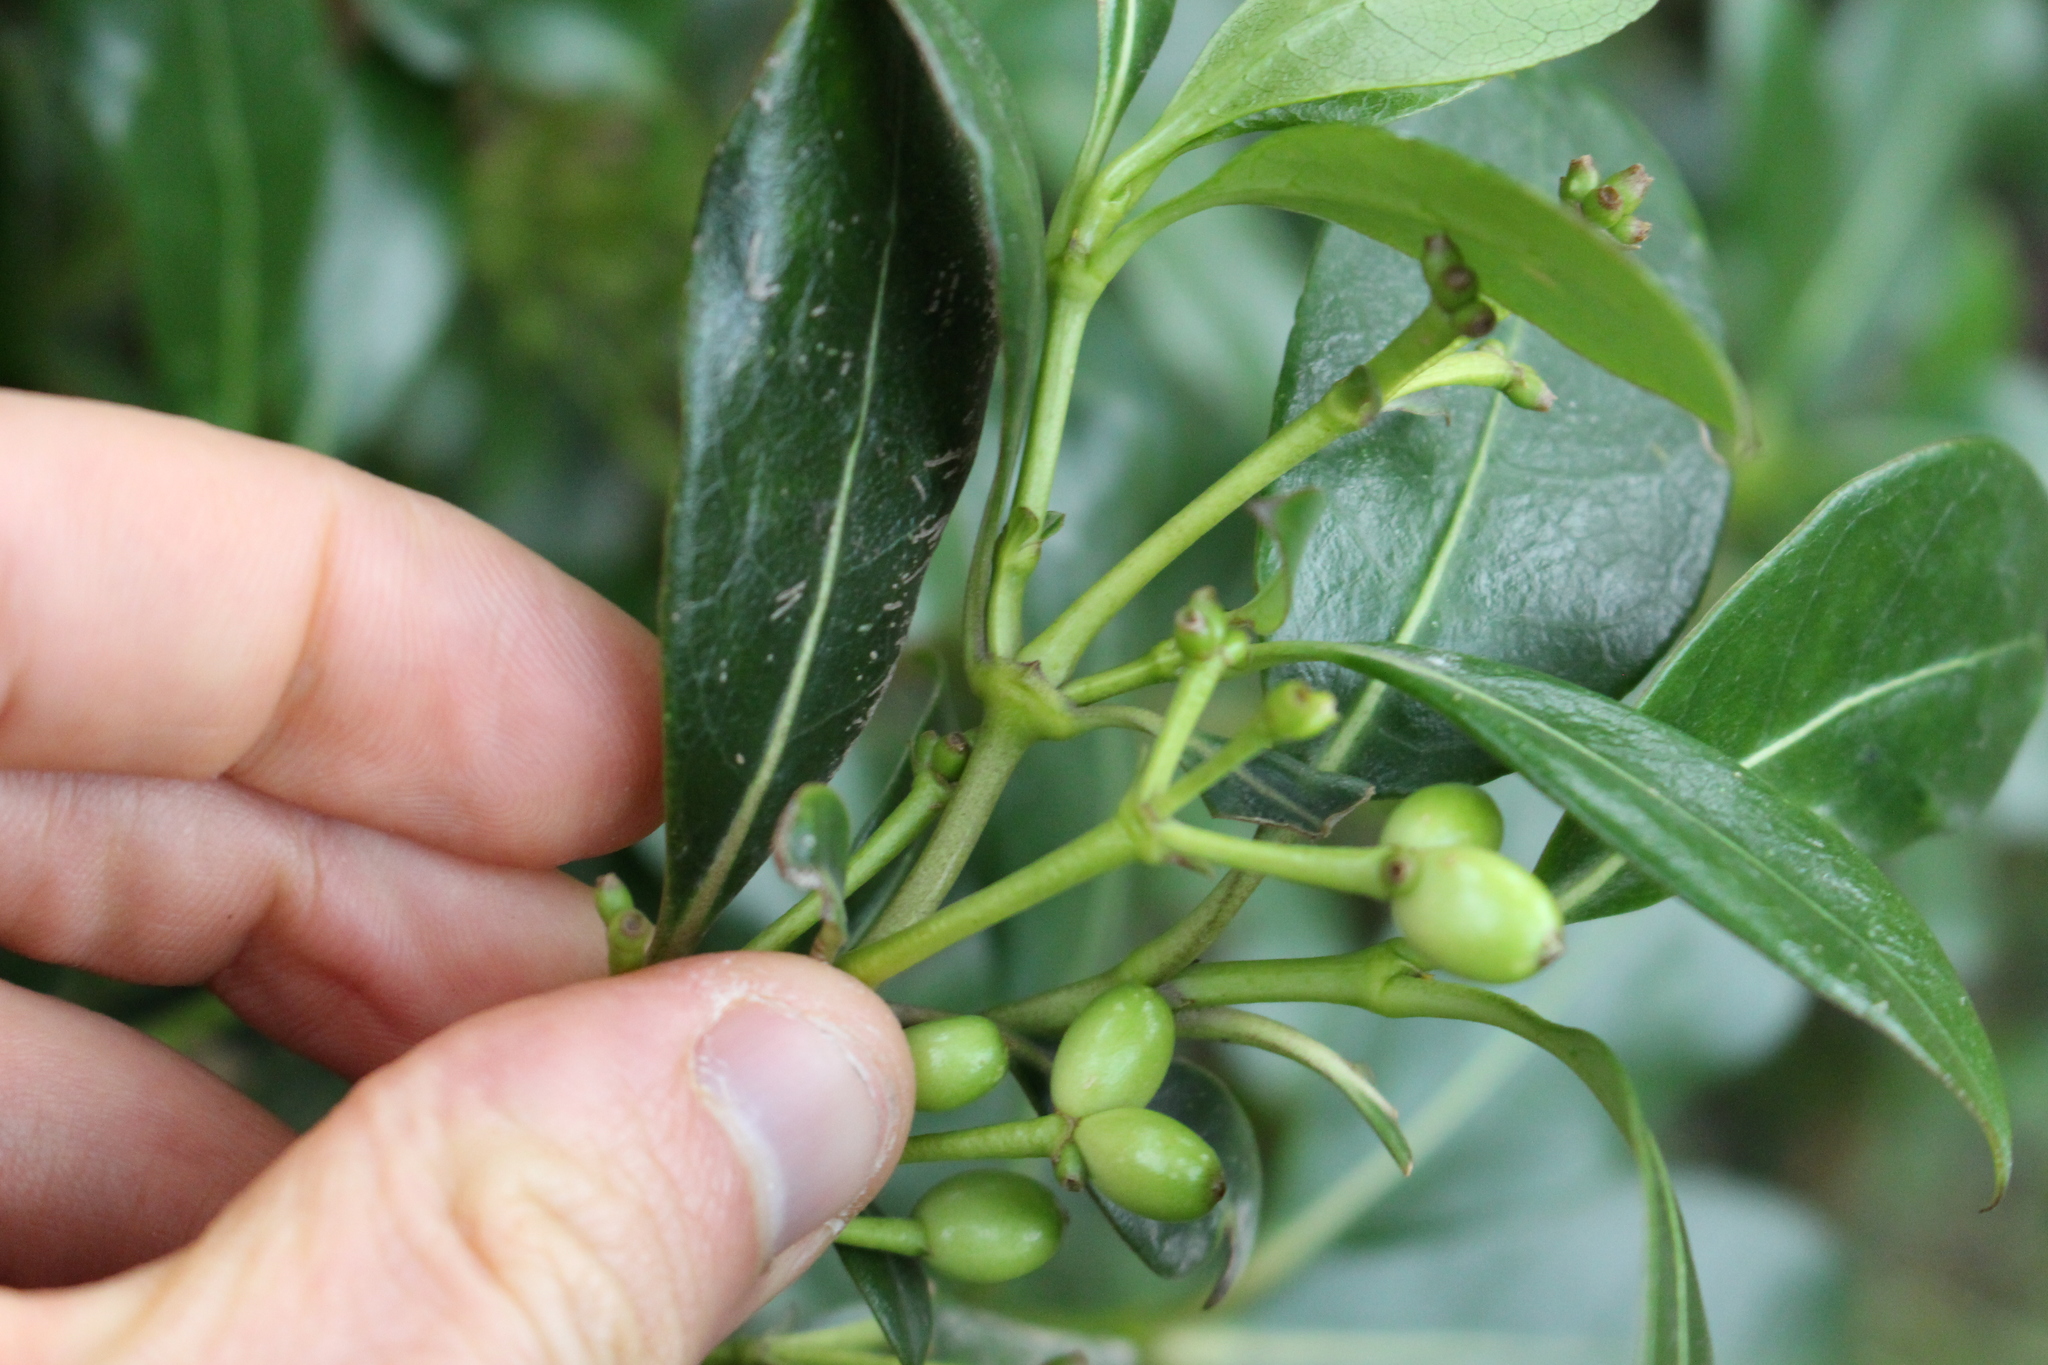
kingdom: Plantae
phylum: Tracheophyta
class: Magnoliopsida
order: Gentianales
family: Rubiaceae
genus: Coprosma
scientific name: Coprosma lucida
